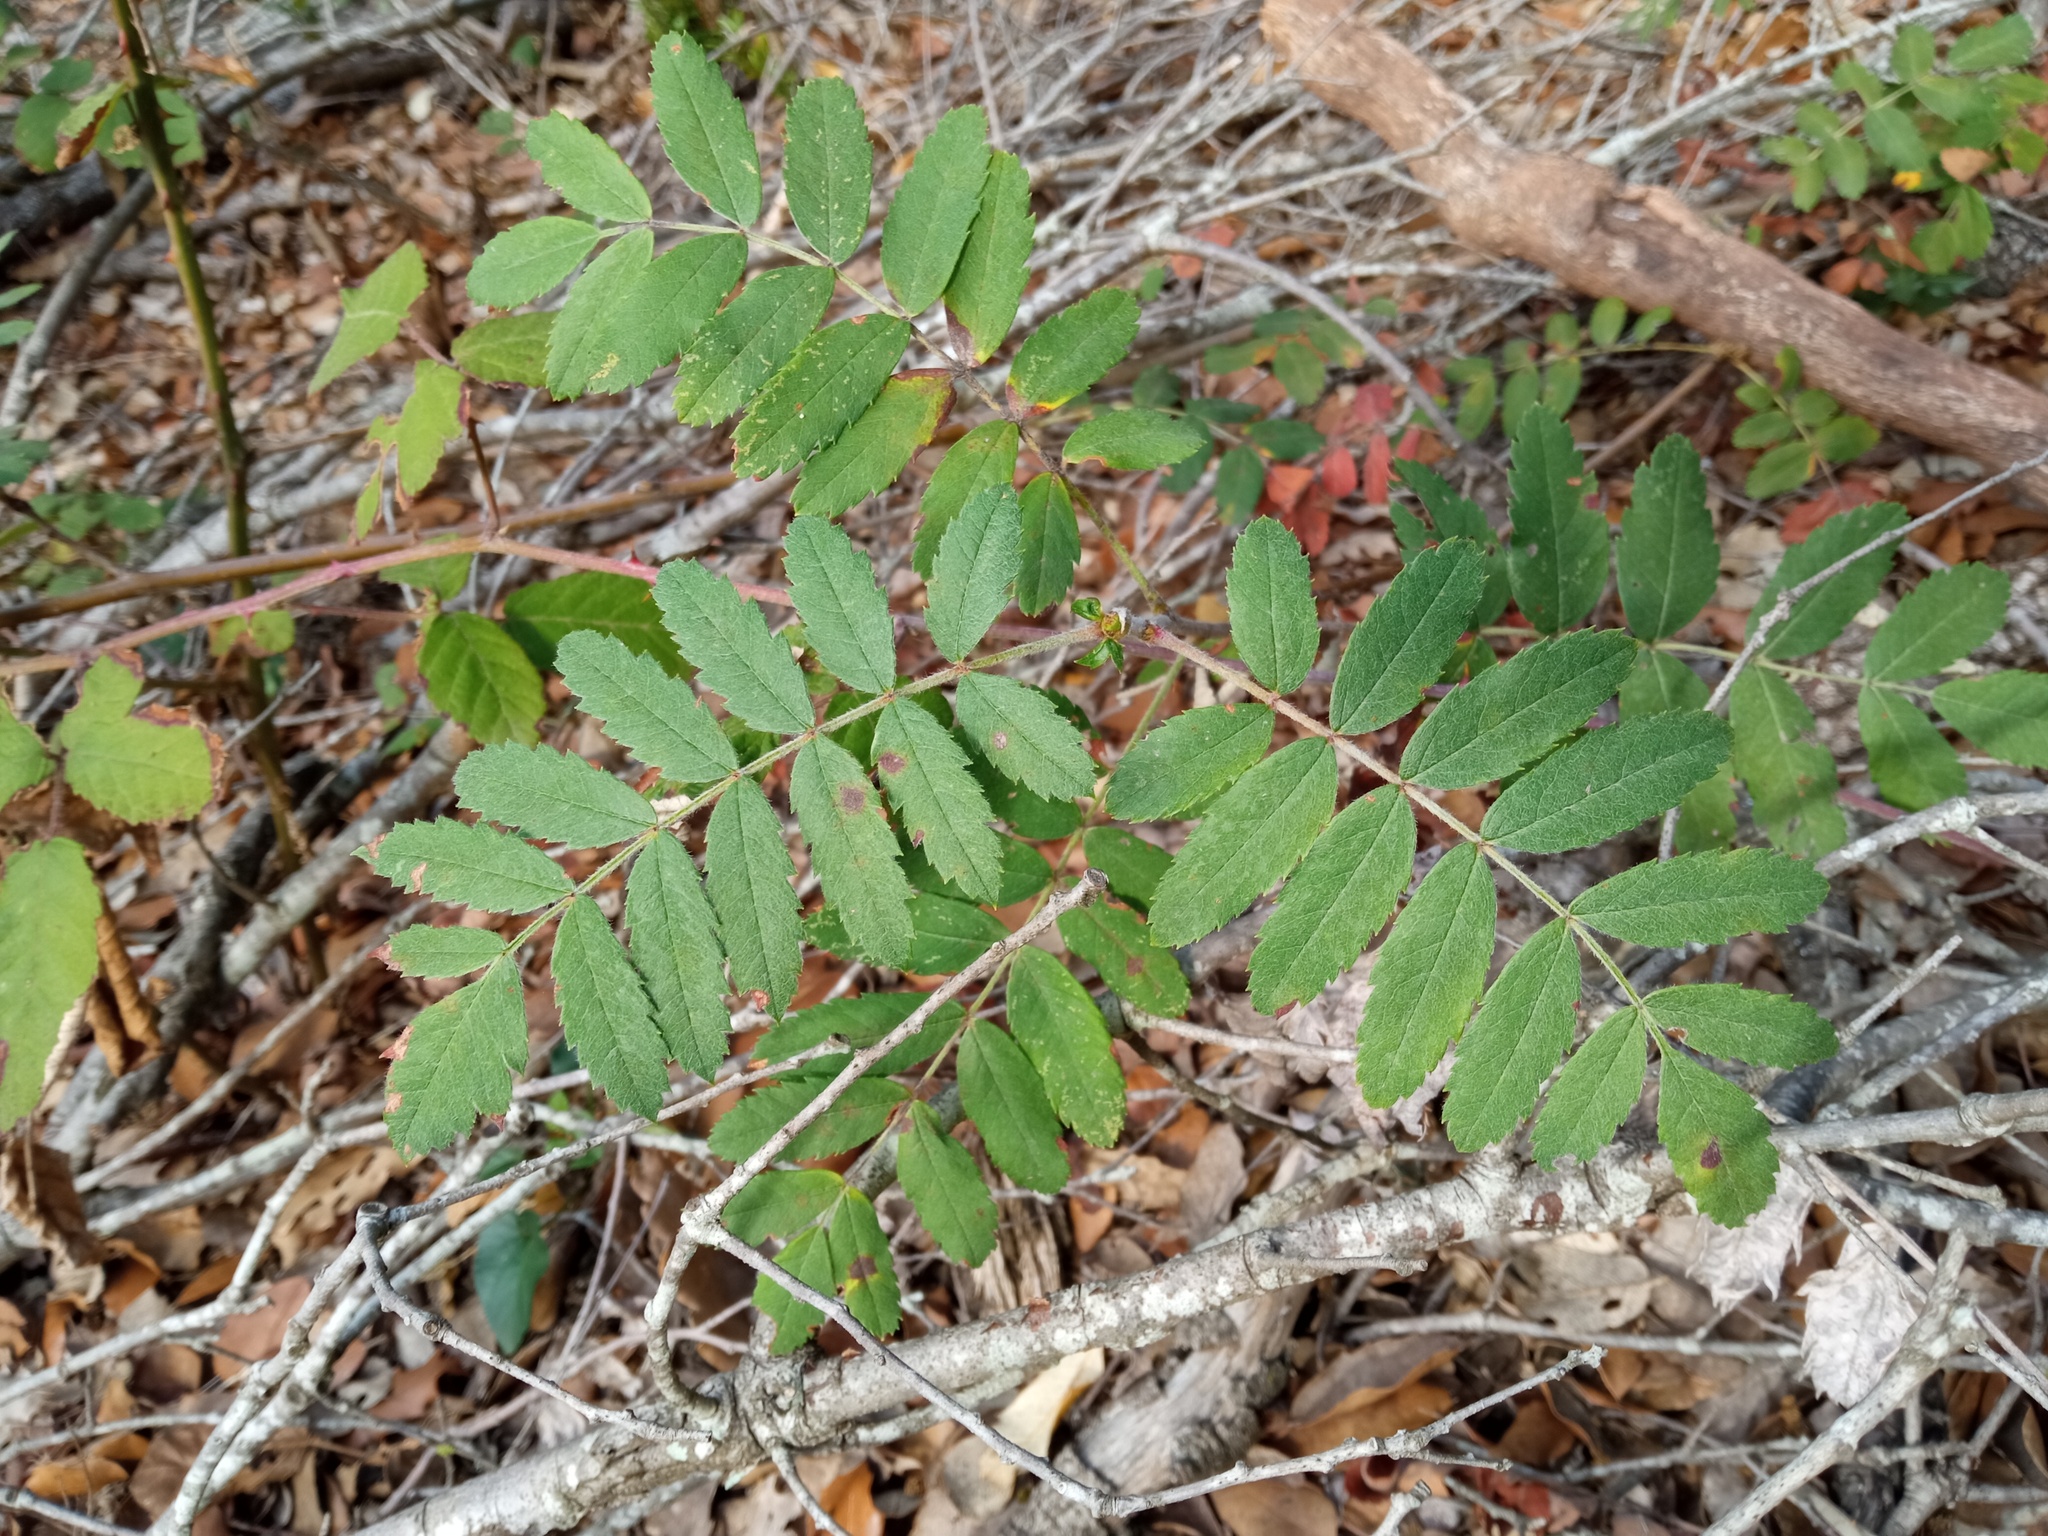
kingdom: Plantae
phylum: Tracheophyta
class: Magnoliopsida
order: Rosales
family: Rosaceae
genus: Cormus
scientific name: Cormus domestica
